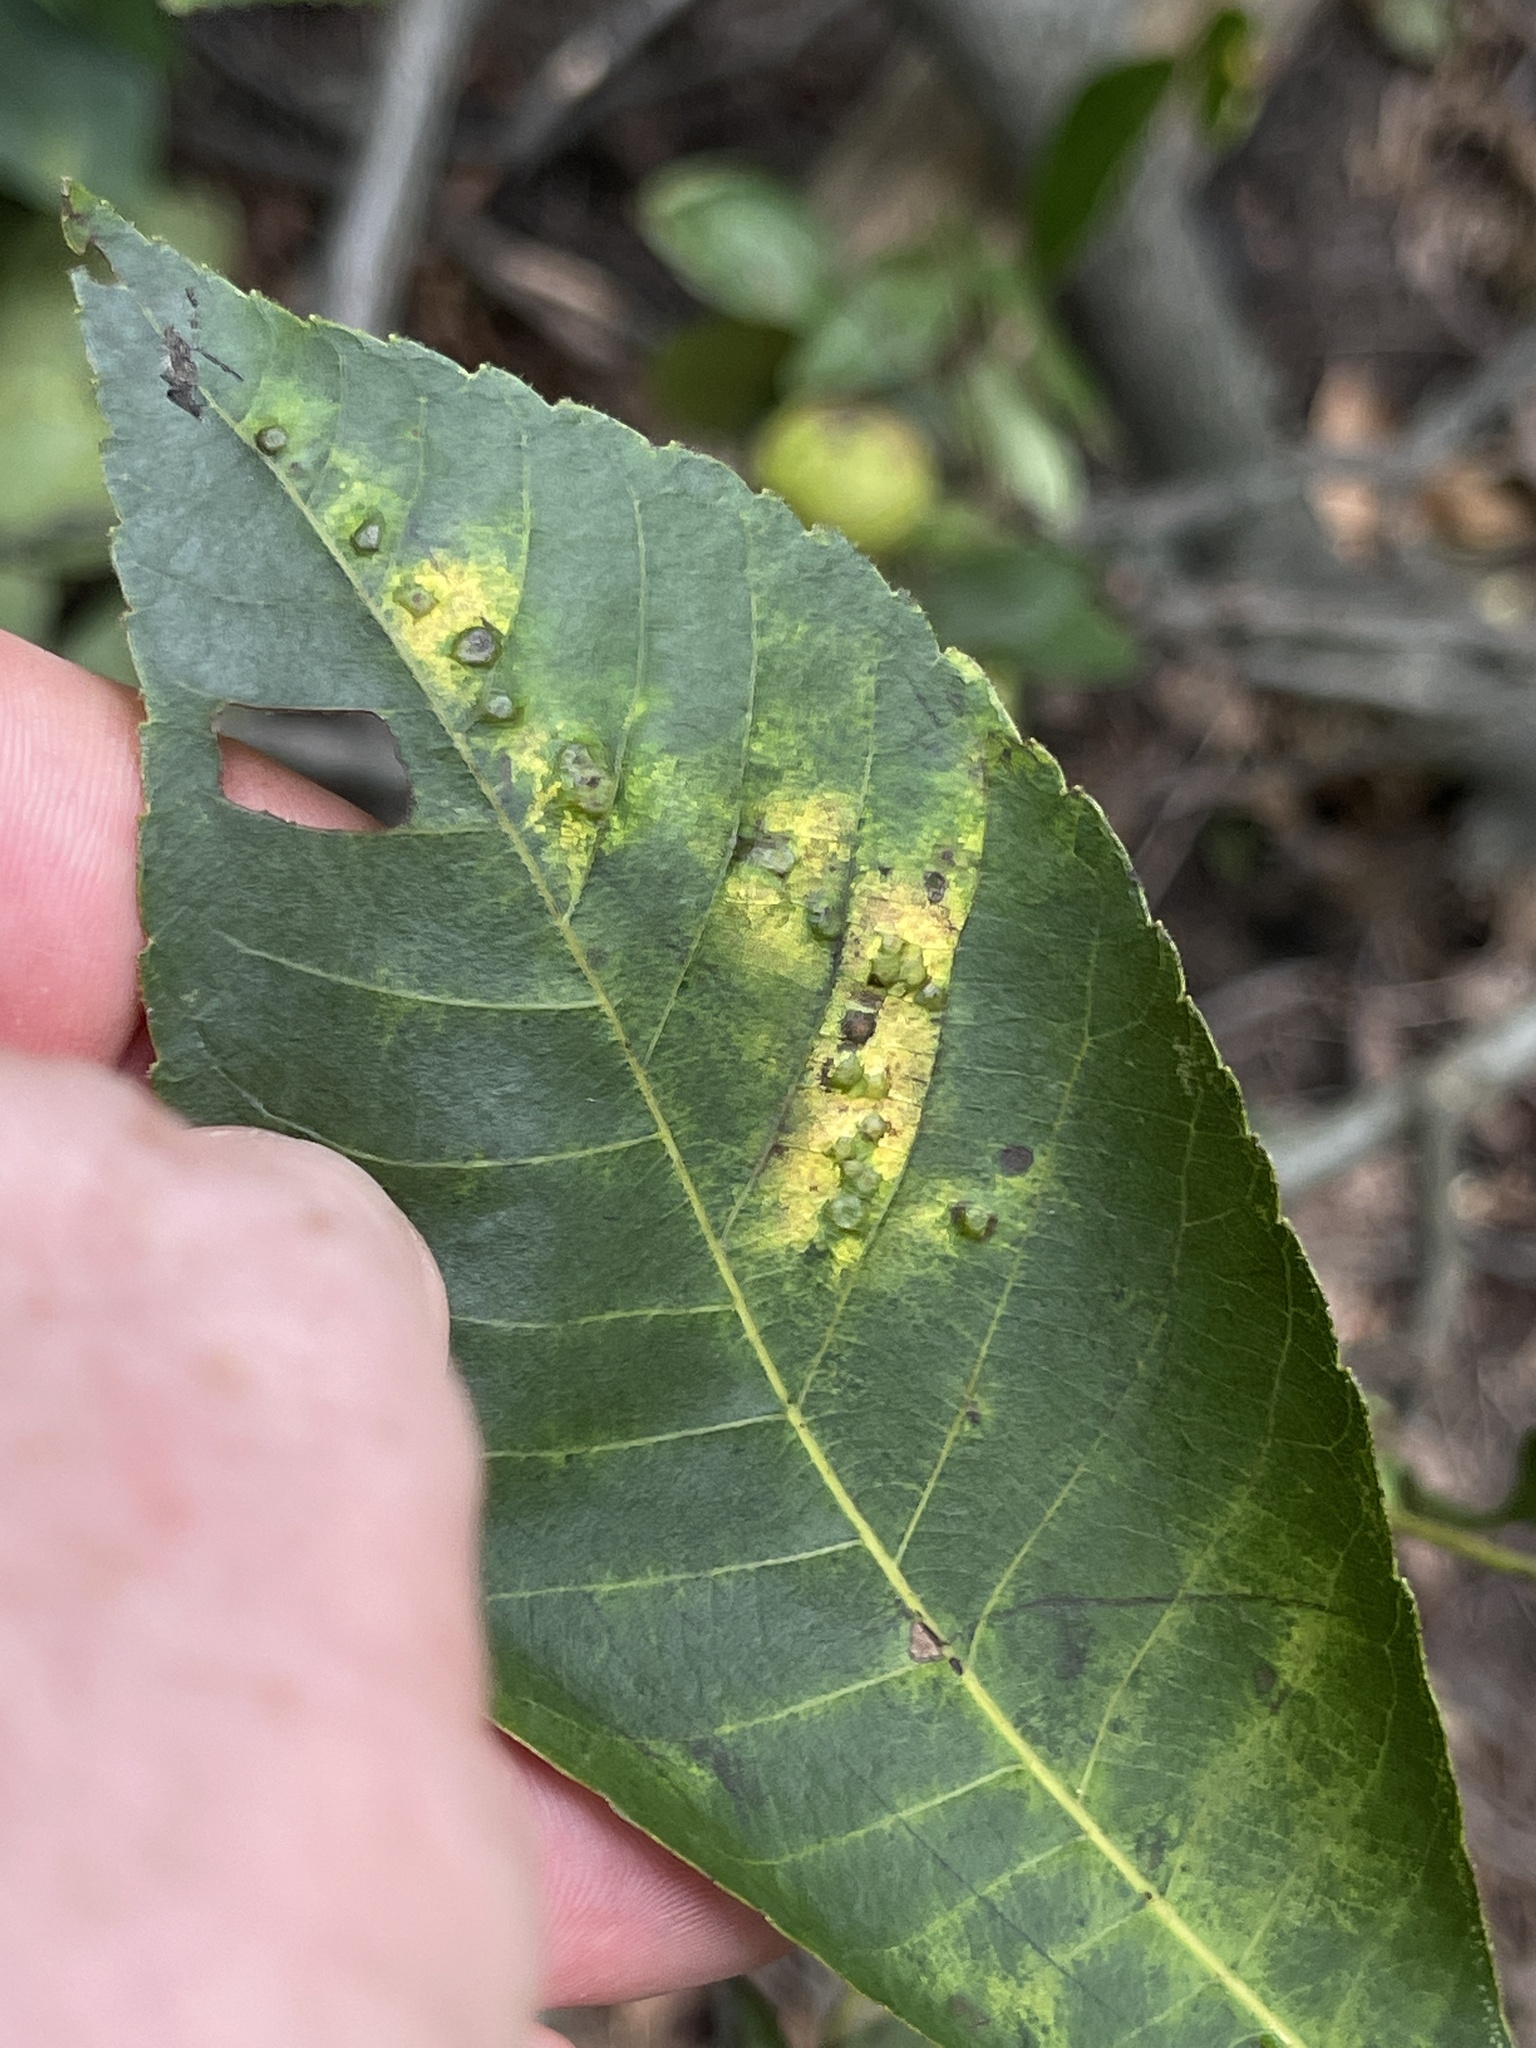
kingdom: Animalia
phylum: Arthropoda
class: Insecta
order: Diptera
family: Cecidomyiidae
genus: Caryomyia
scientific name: Caryomyia echinata
